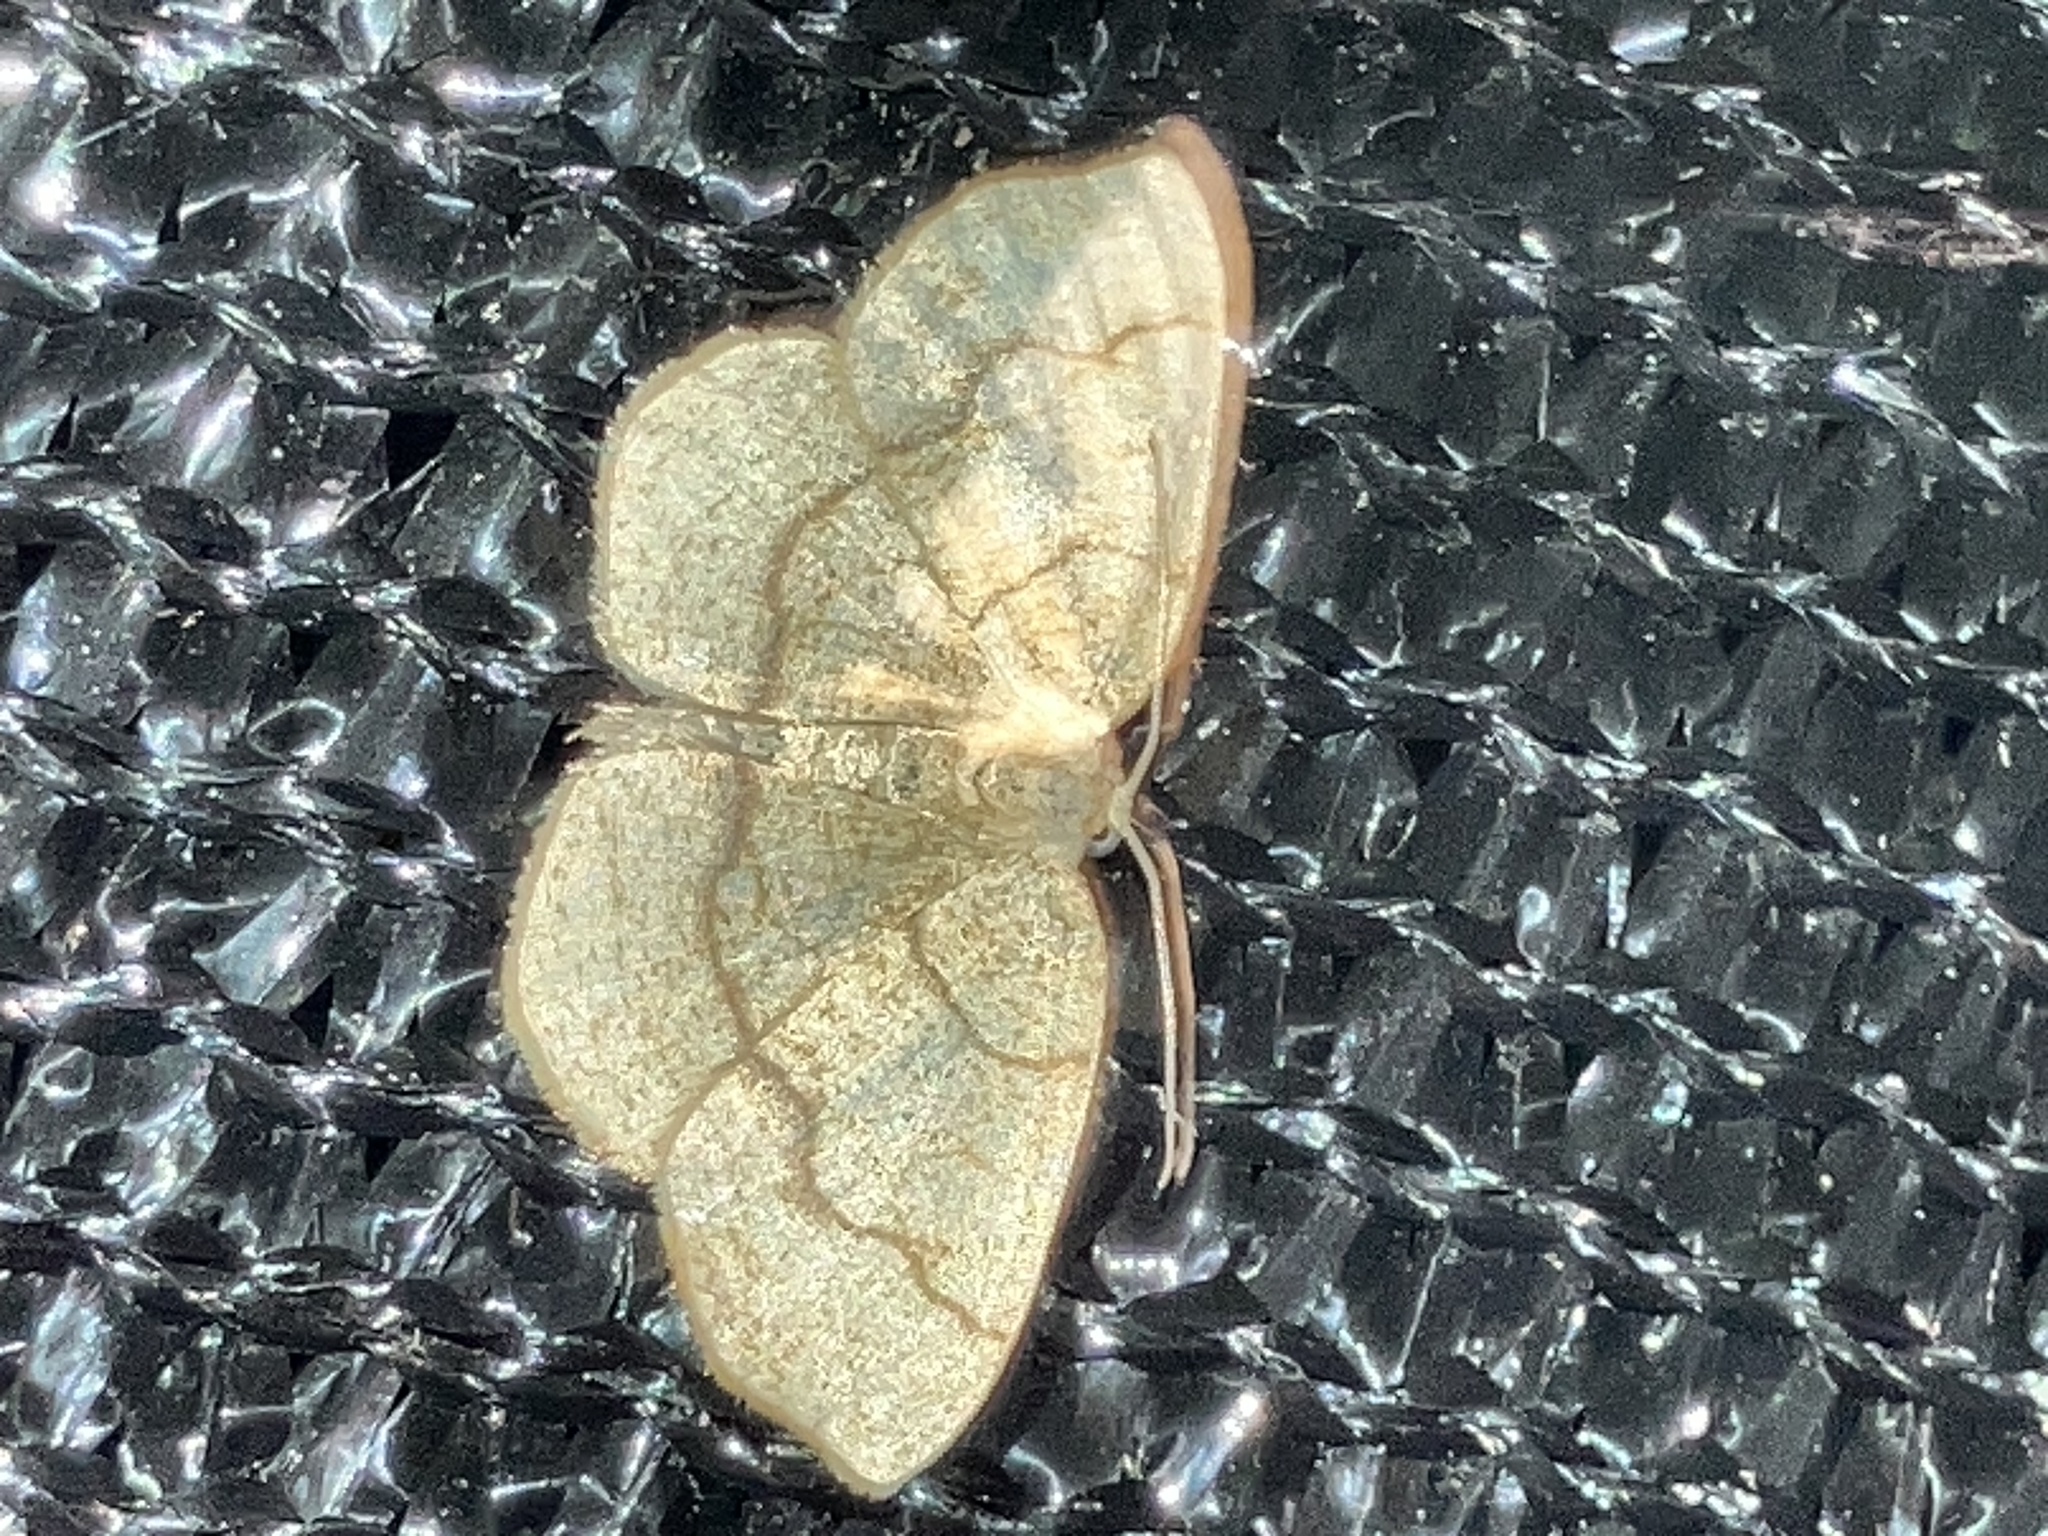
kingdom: Animalia
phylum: Arthropoda
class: Insecta
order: Lepidoptera
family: Geometridae
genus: Nematocampa
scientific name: Nematocampa baggettaria
